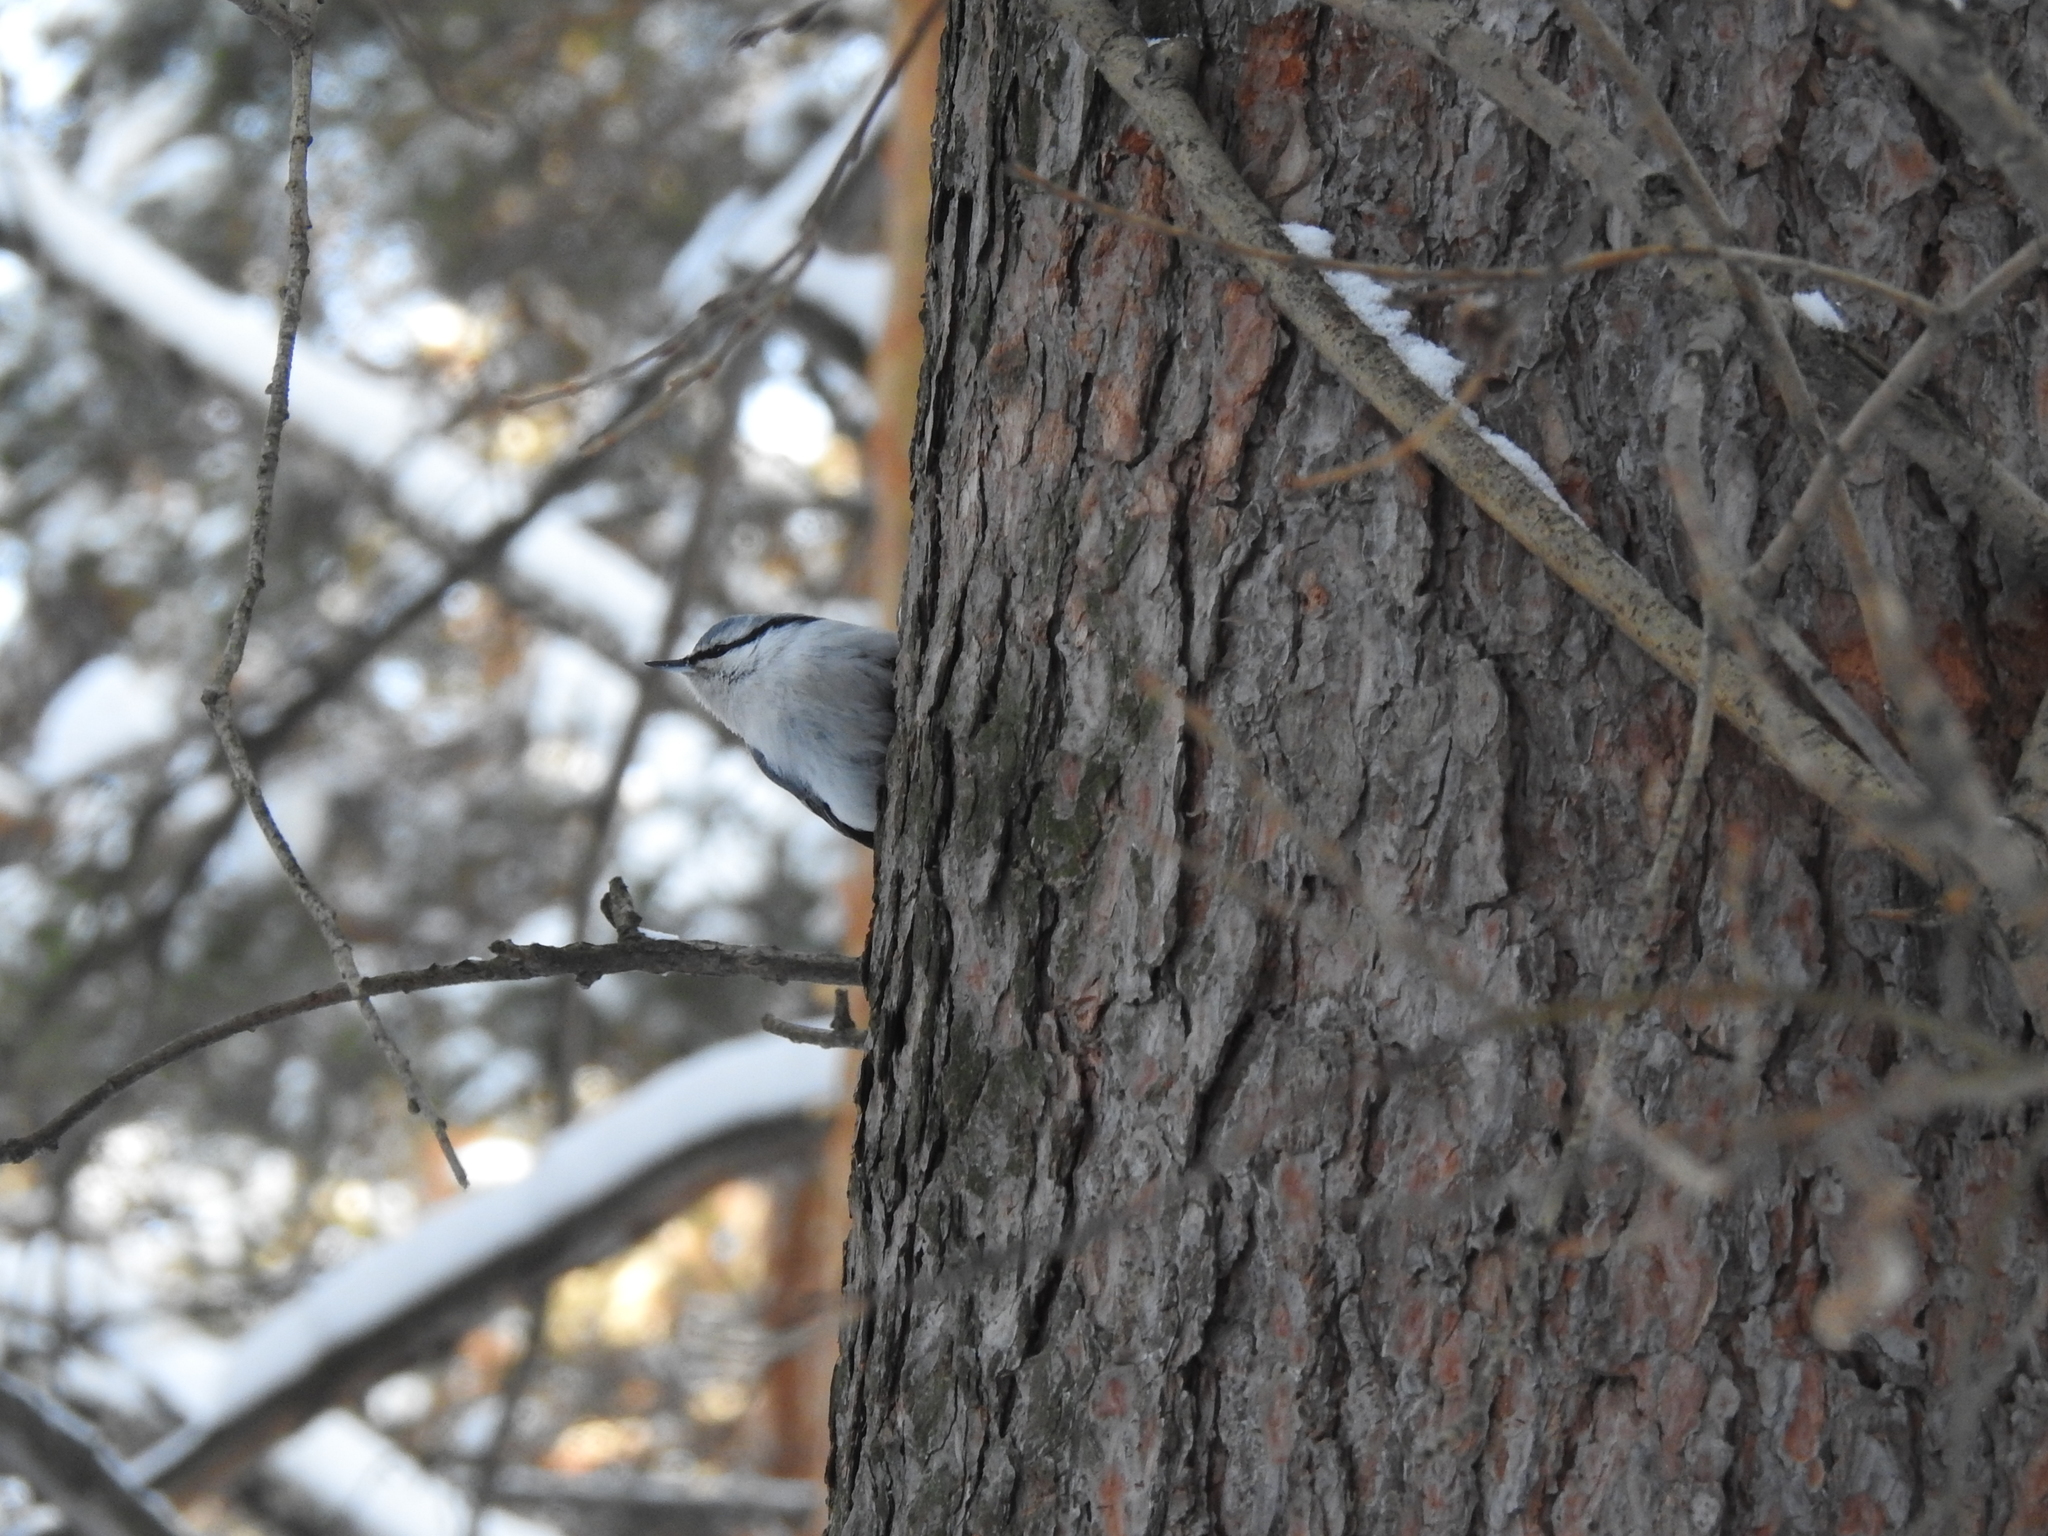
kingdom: Animalia
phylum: Chordata
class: Aves
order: Passeriformes
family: Sittidae
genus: Sitta
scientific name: Sitta europaea
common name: Eurasian nuthatch
